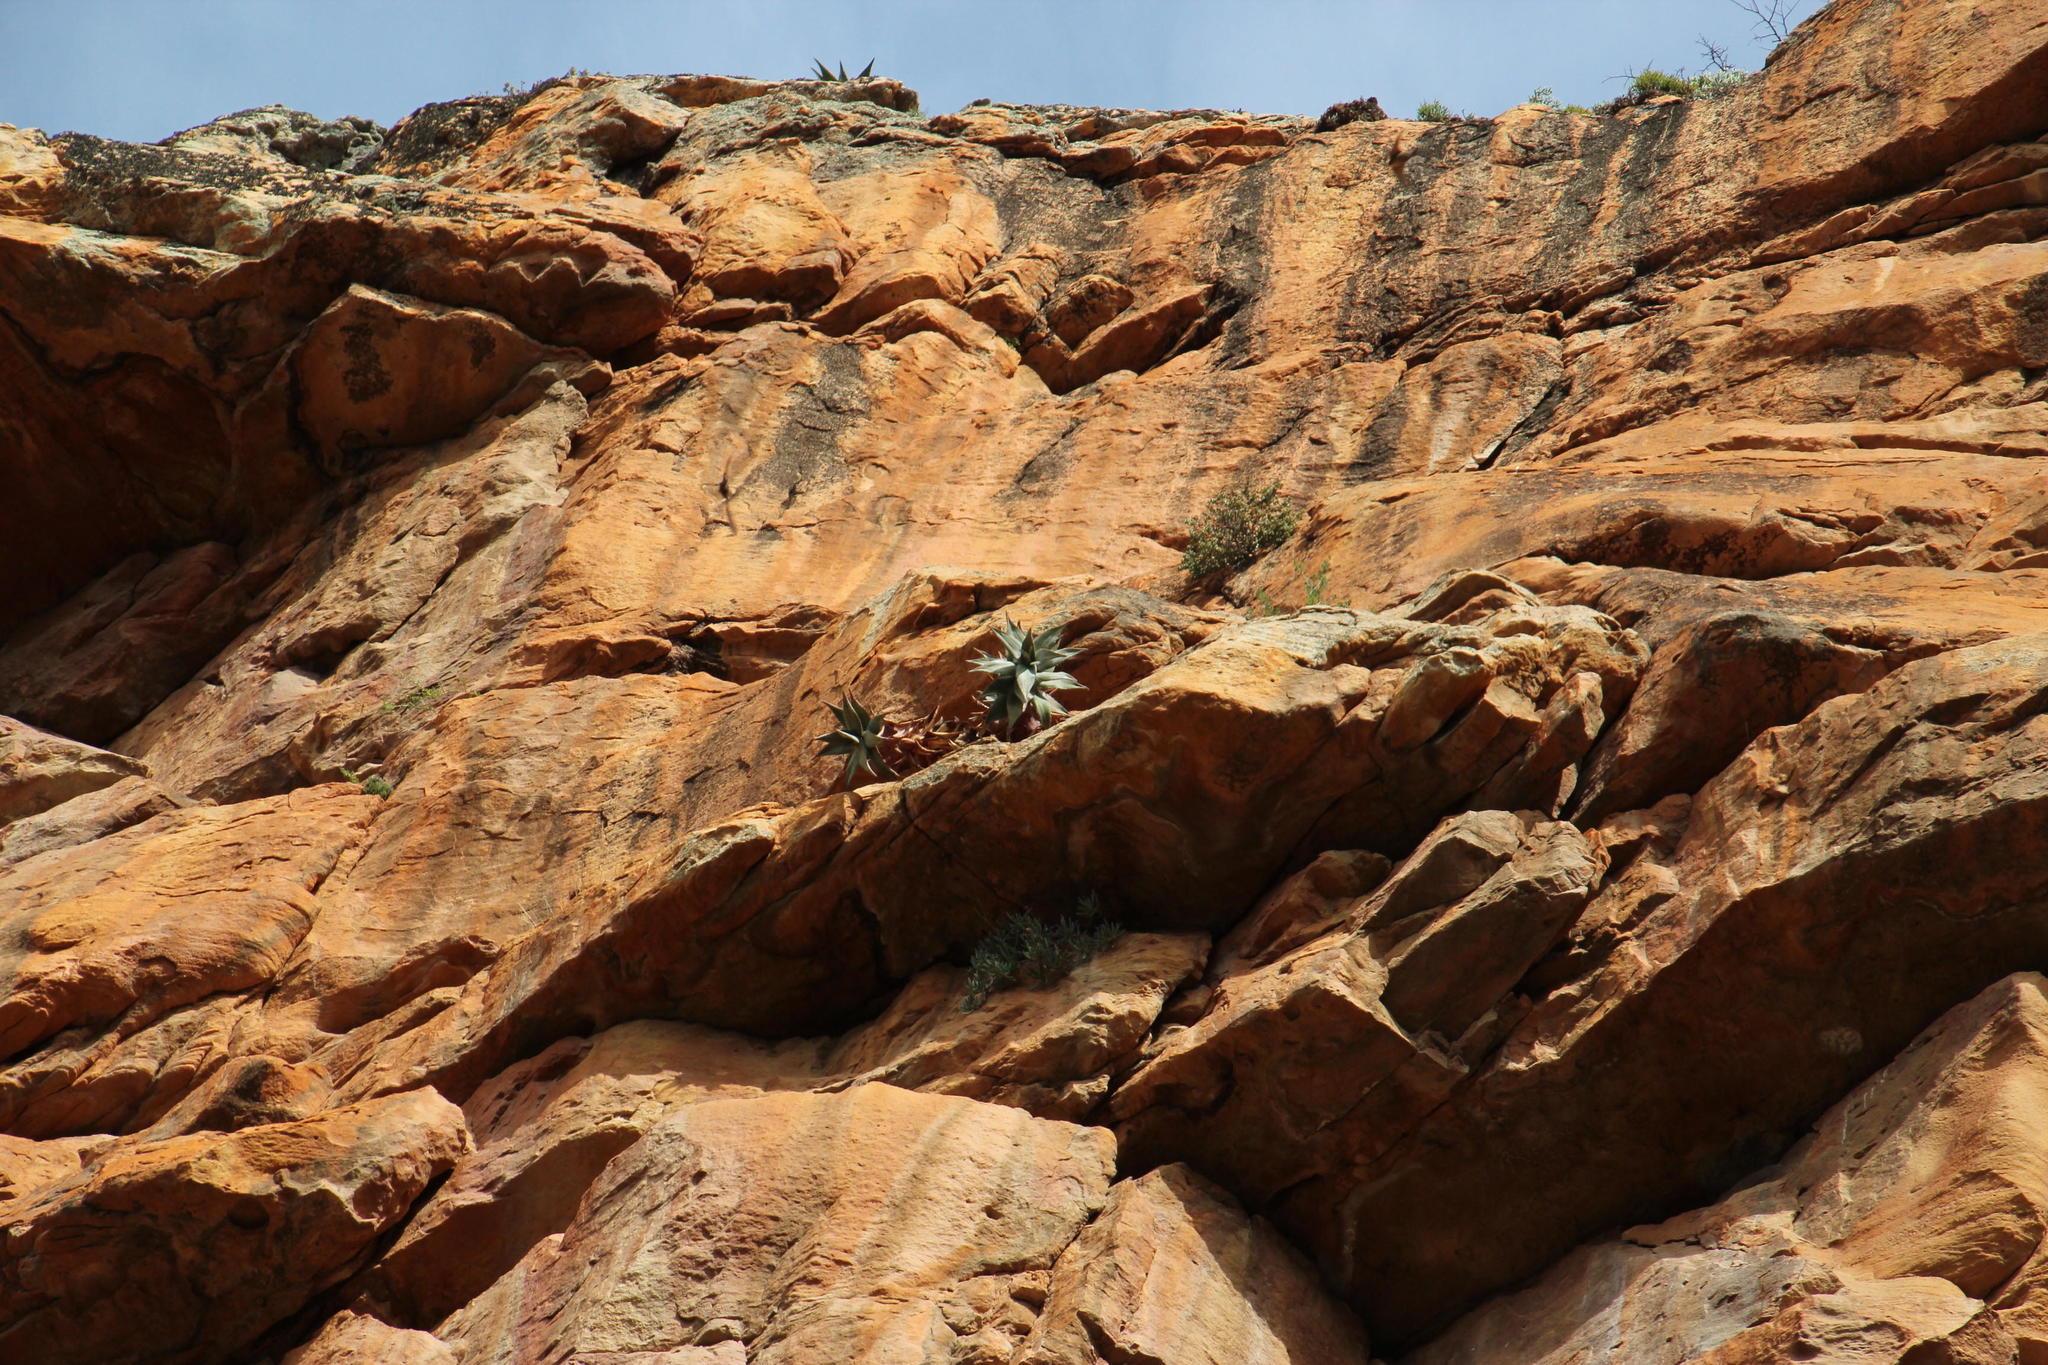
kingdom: Plantae
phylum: Tracheophyta
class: Liliopsida
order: Asparagales
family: Asphodelaceae
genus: Aloe
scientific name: Aloe perfoliata
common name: Mitra aloe
